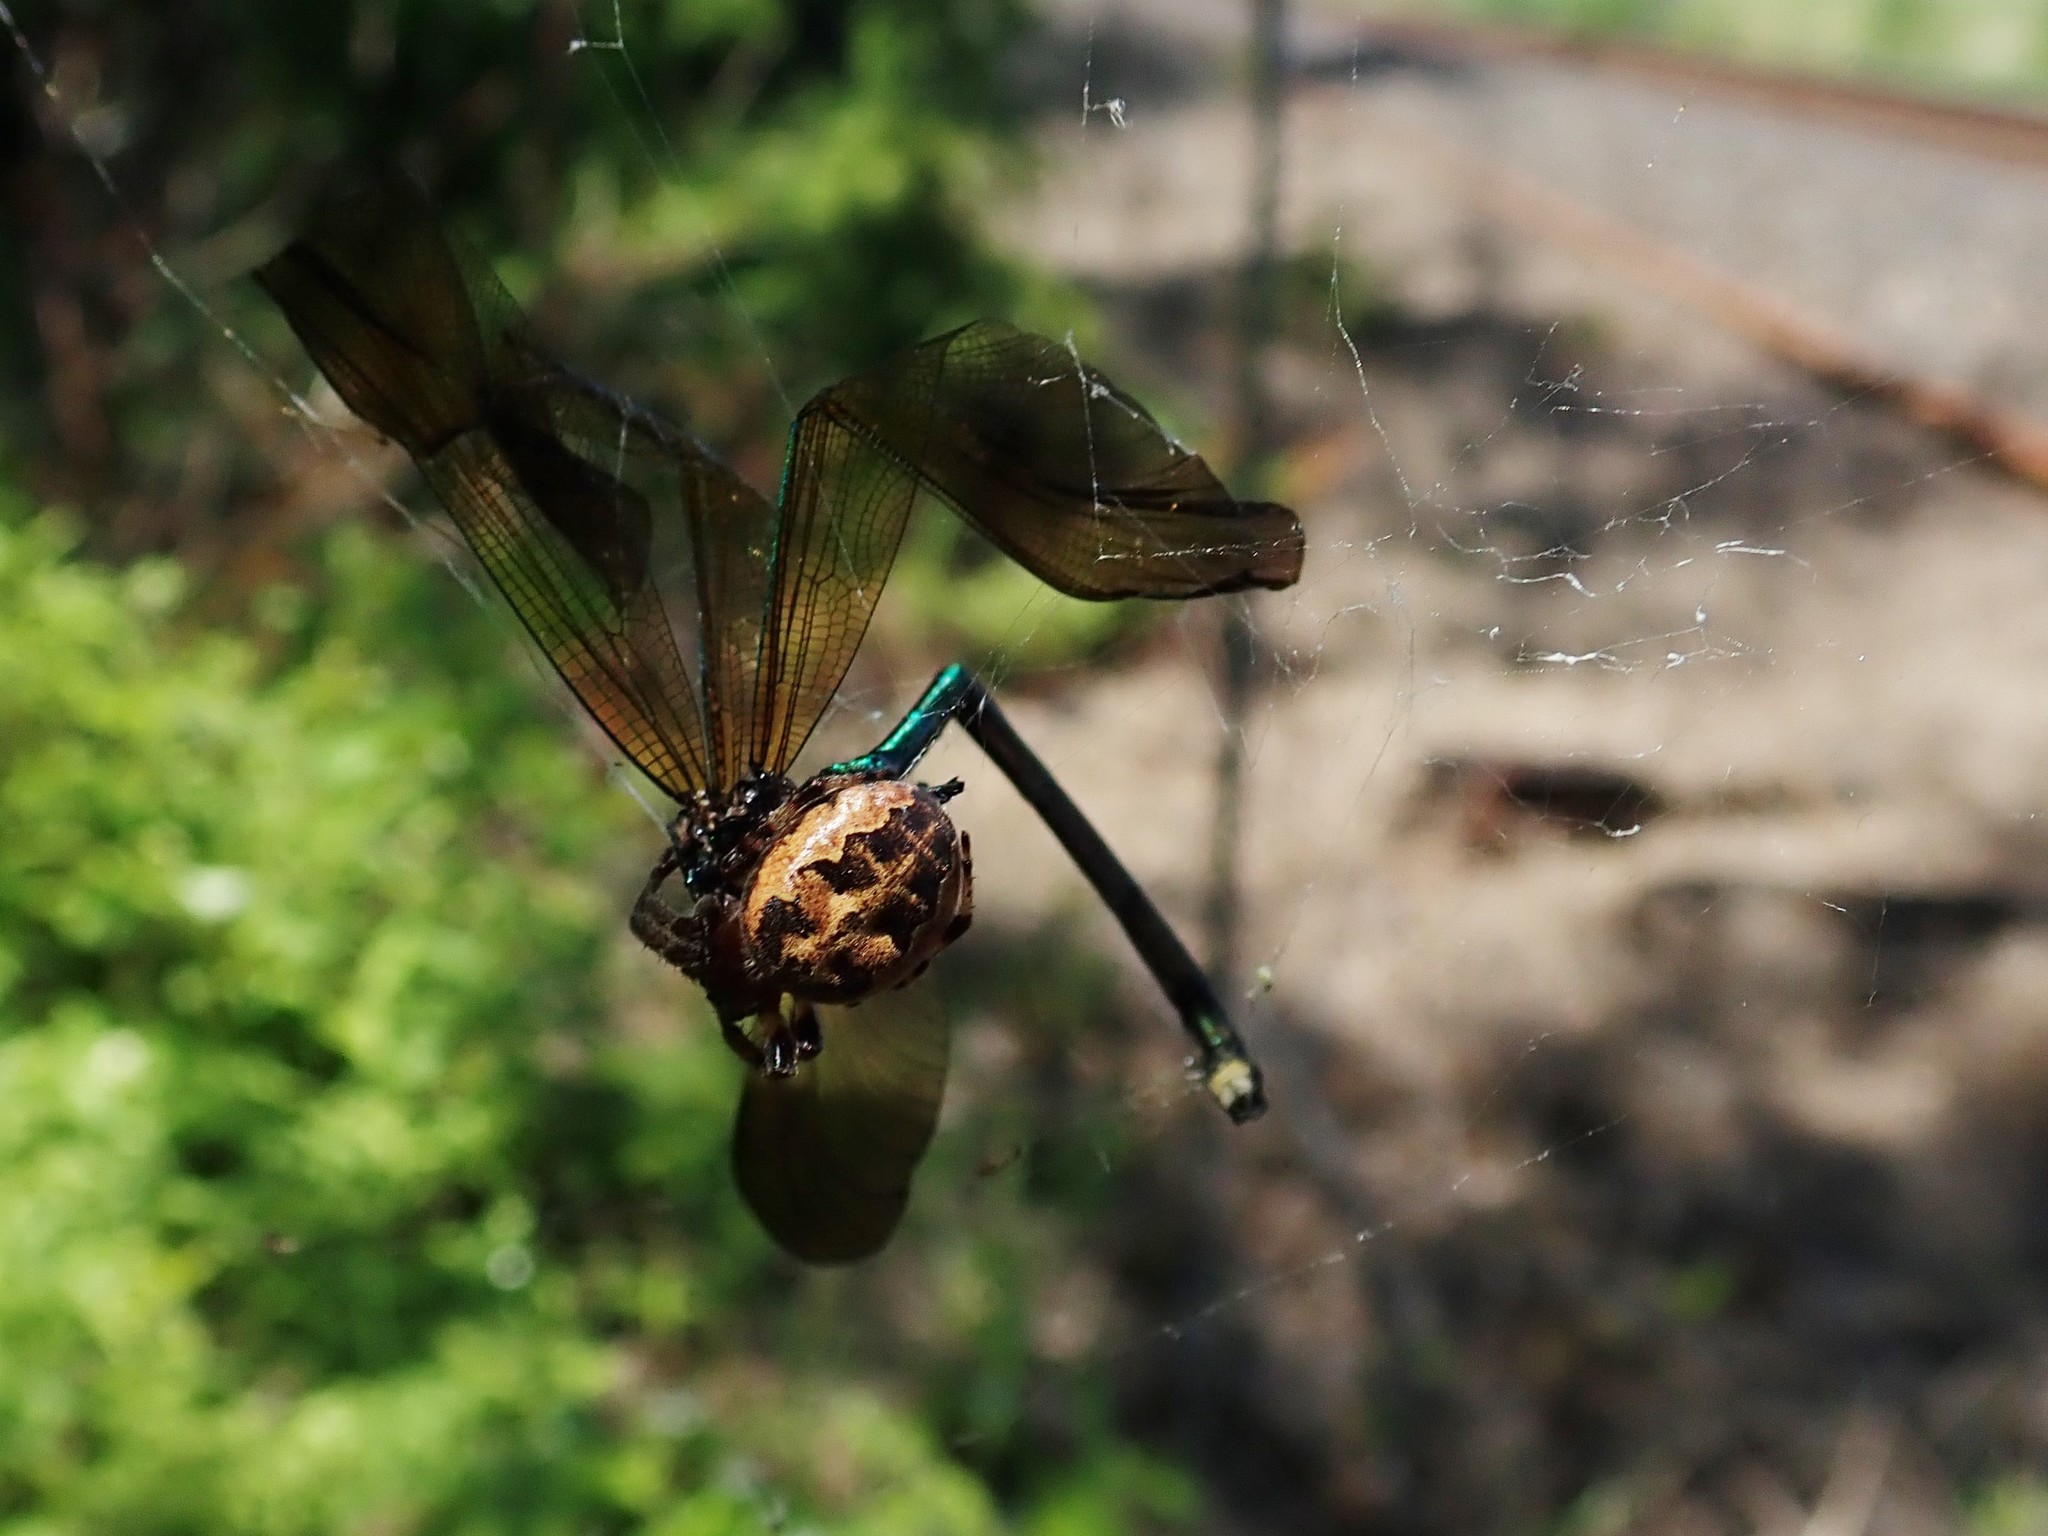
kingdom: Animalia
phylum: Arthropoda
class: Insecta
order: Odonata
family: Calopterygidae
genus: Calopteryx
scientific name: Calopteryx aequabilis
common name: River jewelwing
